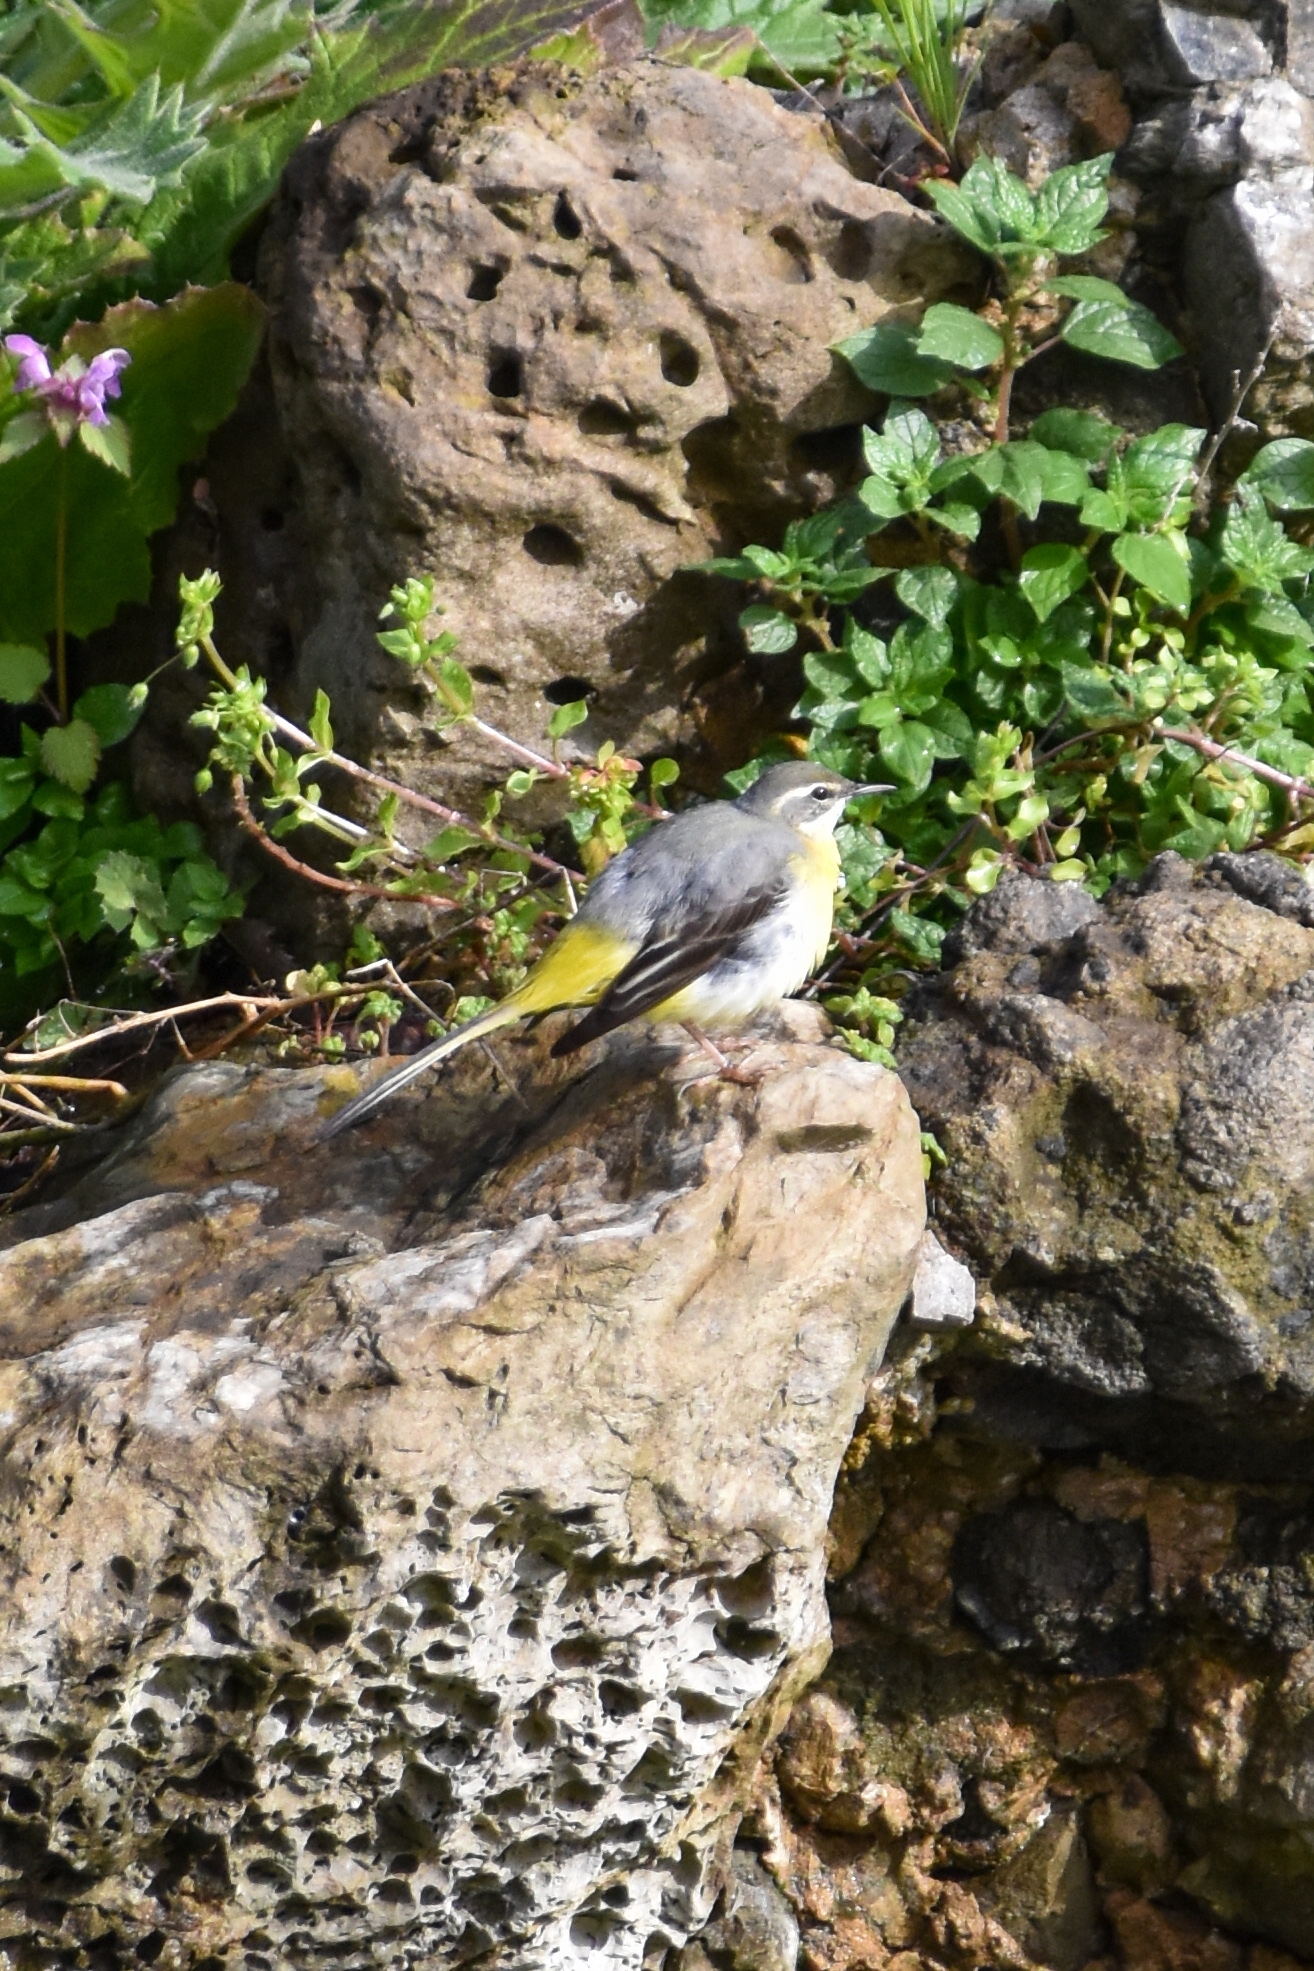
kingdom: Animalia
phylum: Chordata
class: Aves
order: Passeriformes
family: Motacillidae
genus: Motacilla
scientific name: Motacilla cinerea
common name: Grey wagtail
